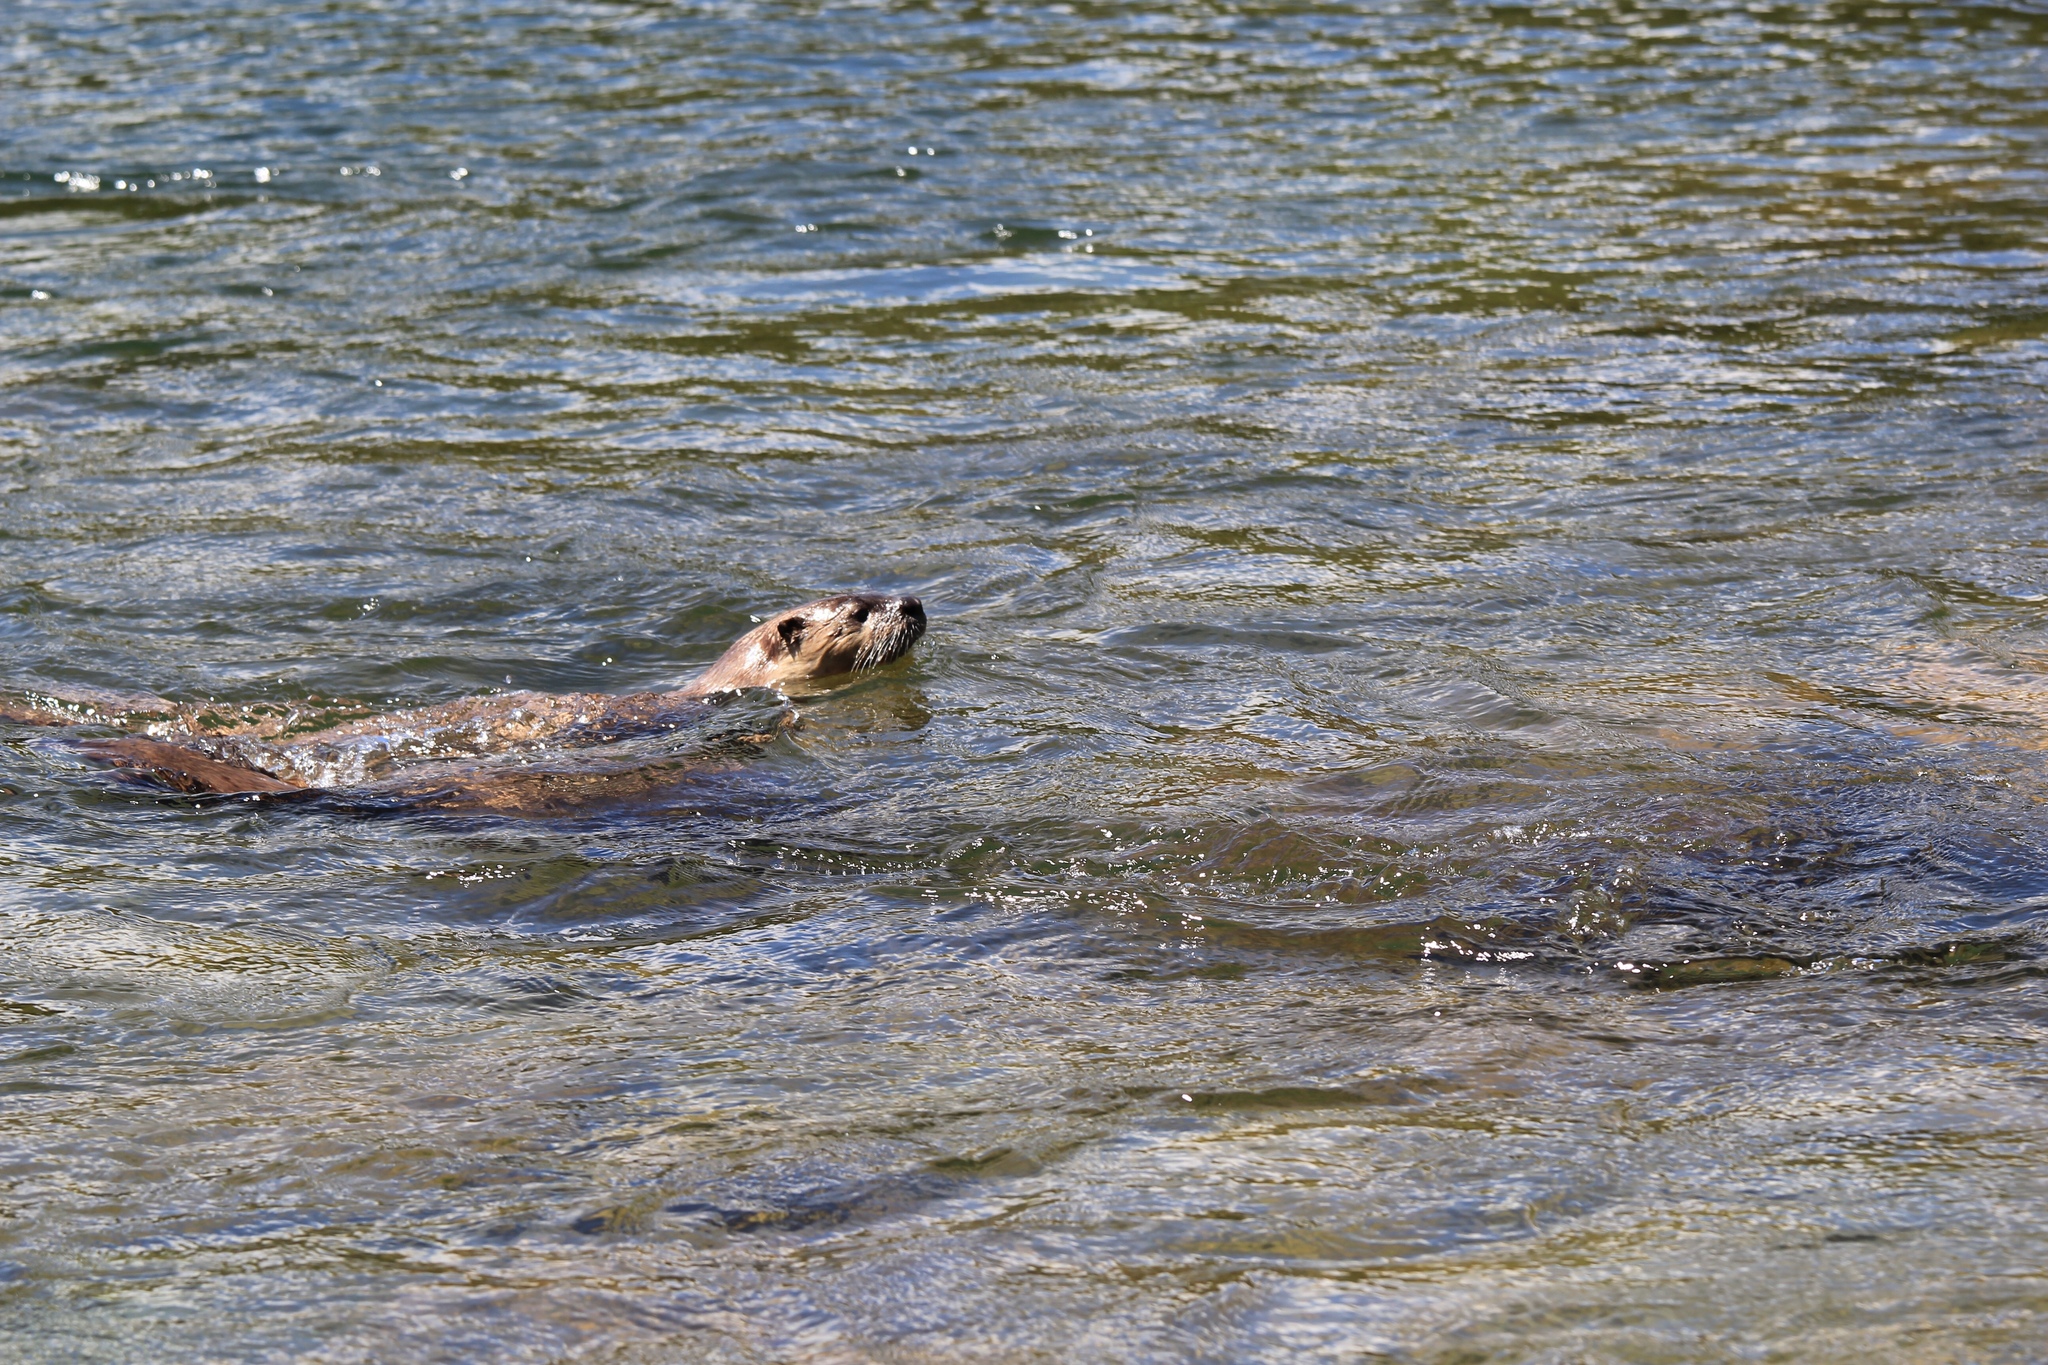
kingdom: Animalia
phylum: Chordata
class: Mammalia
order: Carnivora
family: Mustelidae
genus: Lontra
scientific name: Lontra canadensis
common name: North american river otter
